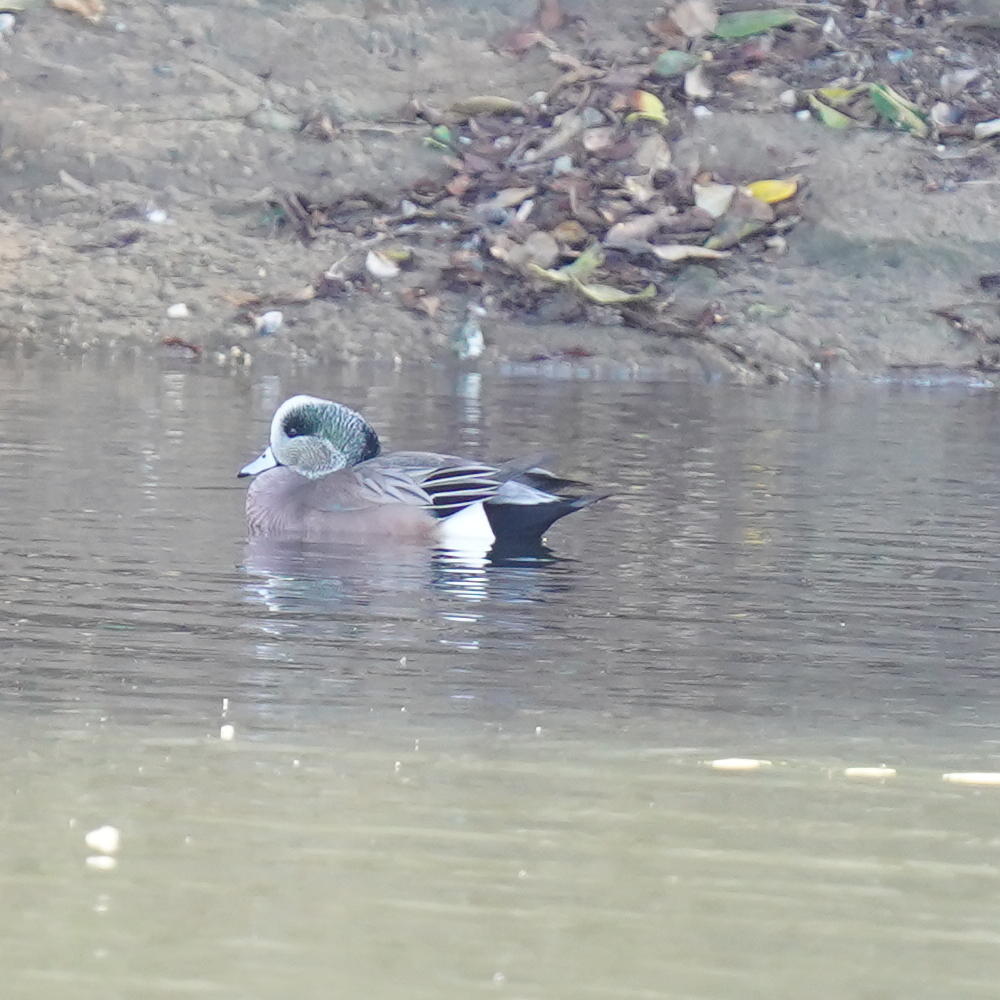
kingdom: Animalia
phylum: Chordata
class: Aves
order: Anseriformes
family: Anatidae
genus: Mareca
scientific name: Mareca americana
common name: American wigeon
